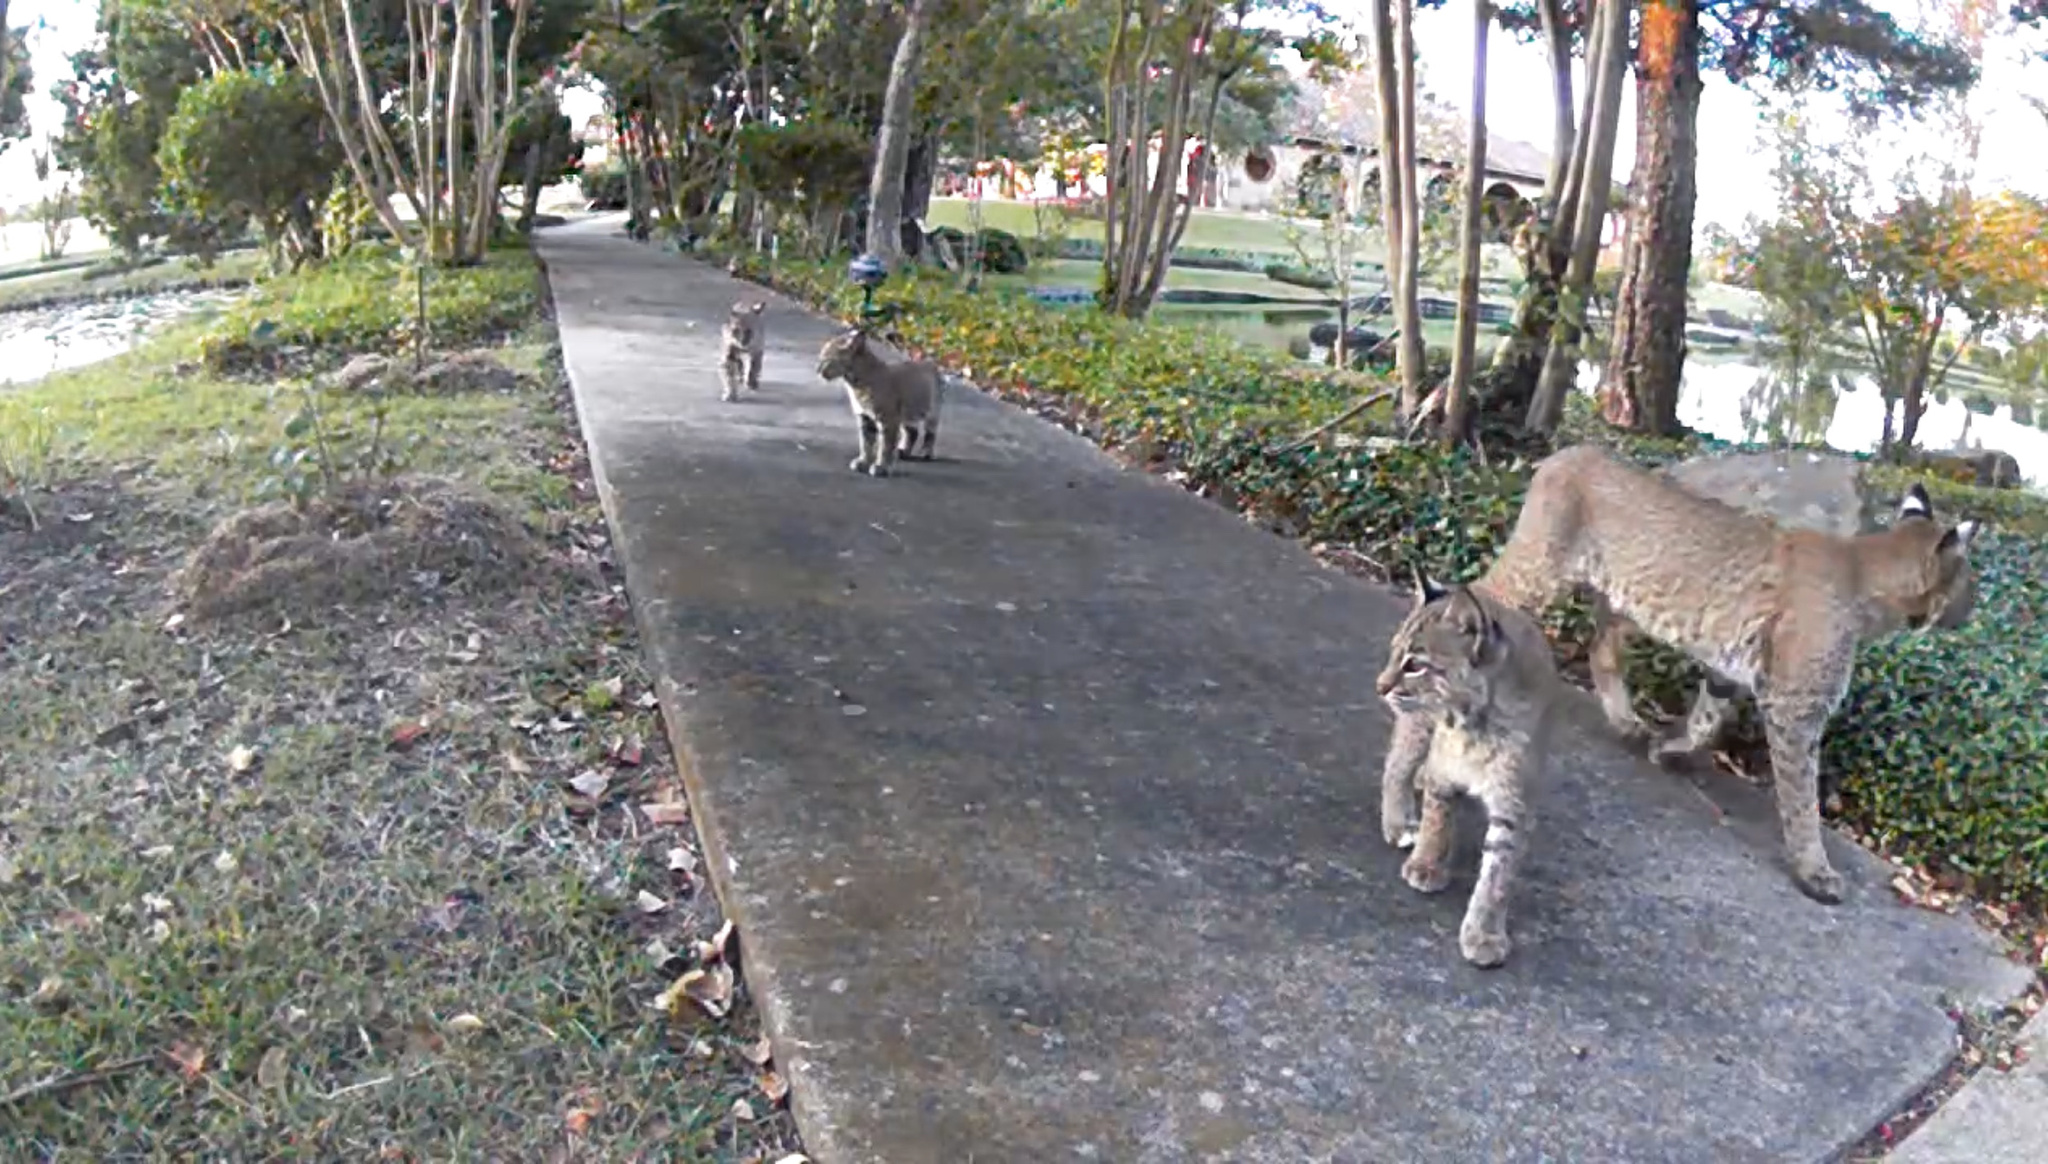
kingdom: Animalia
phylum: Chordata
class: Mammalia
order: Carnivora
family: Felidae
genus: Lynx
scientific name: Lynx rufus
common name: Bobcat
